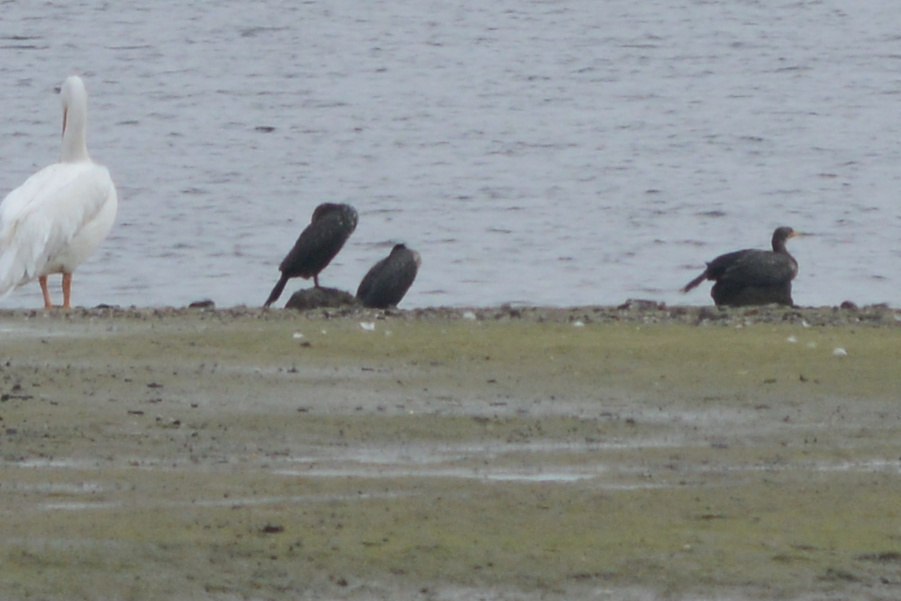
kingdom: Animalia
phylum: Chordata
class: Aves
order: Suliformes
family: Phalacrocoracidae
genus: Phalacrocorax
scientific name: Phalacrocorax auritus
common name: Double-crested cormorant
